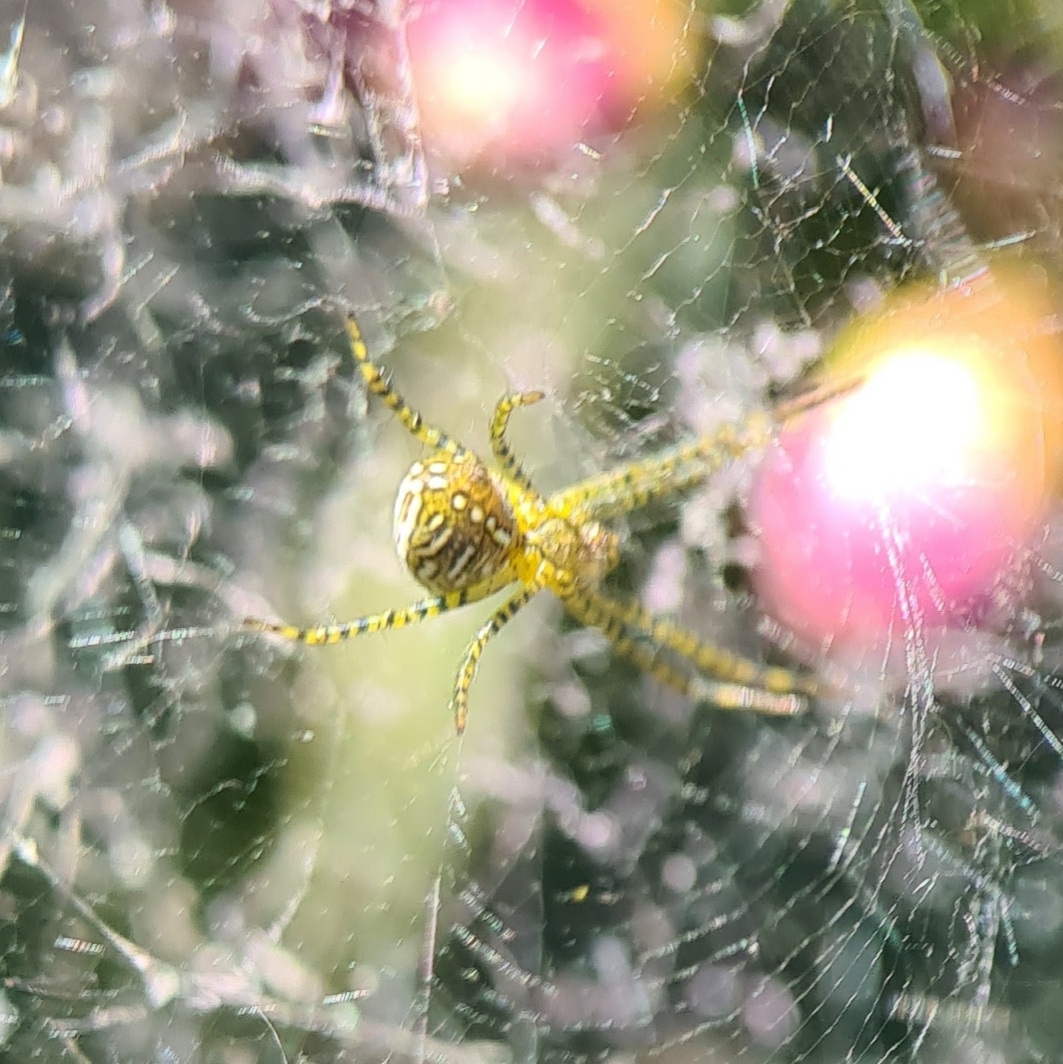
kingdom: Chromista
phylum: Ochrophyta
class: Dictyochophyceae
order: Pedinellales
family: Cyrtophoraceae
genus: Cyrtophora
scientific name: Cyrtophora moluccensis
